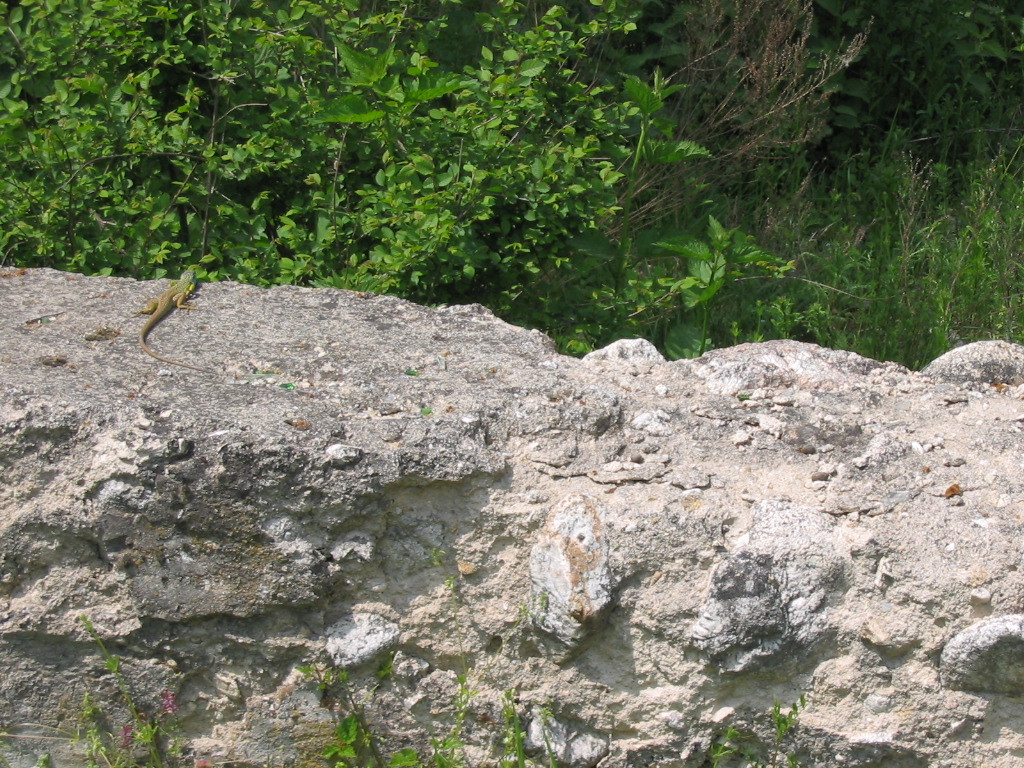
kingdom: Animalia
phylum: Chordata
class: Squamata
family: Lacertidae
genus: Lacerta
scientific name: Lacerta viridis
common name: European green lizard
